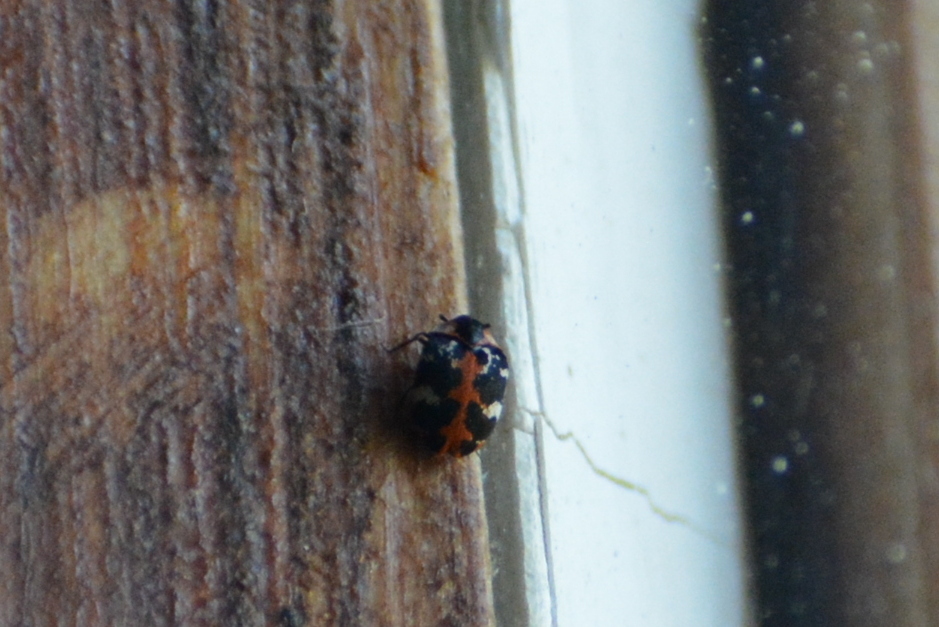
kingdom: Animalia
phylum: Arthropoda
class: Insecta
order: Coleoptera
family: Dermestidae
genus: Anthrenus
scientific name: Anthrenus scrophulariae
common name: Buffalo carpet beetle
